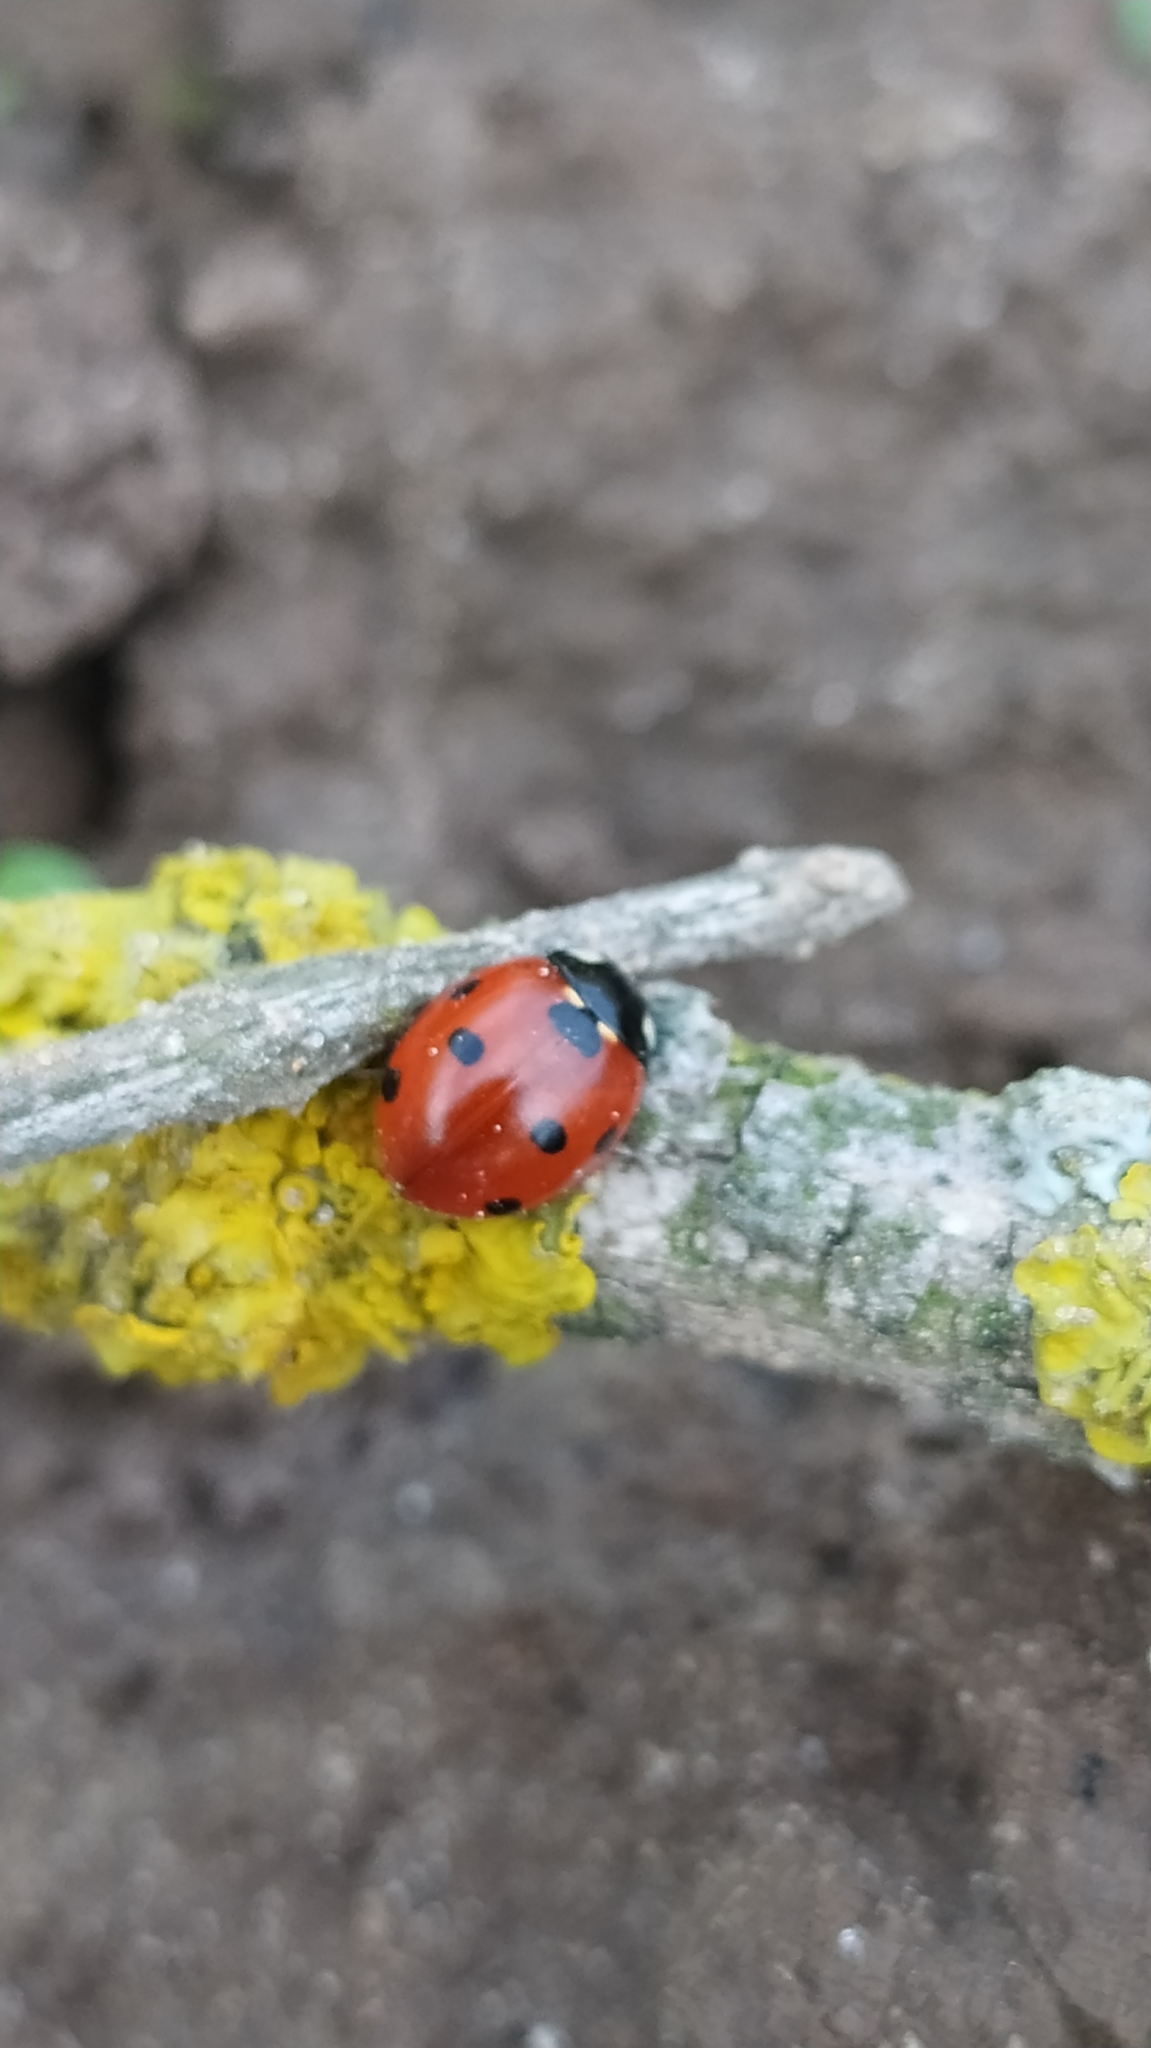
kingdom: Animalia
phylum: Arthropoda
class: Insecta
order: Coleoptera
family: Coccinellidae
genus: Coccinella
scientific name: Coccinella septempunctata
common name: Sevenspotted lady beetle
